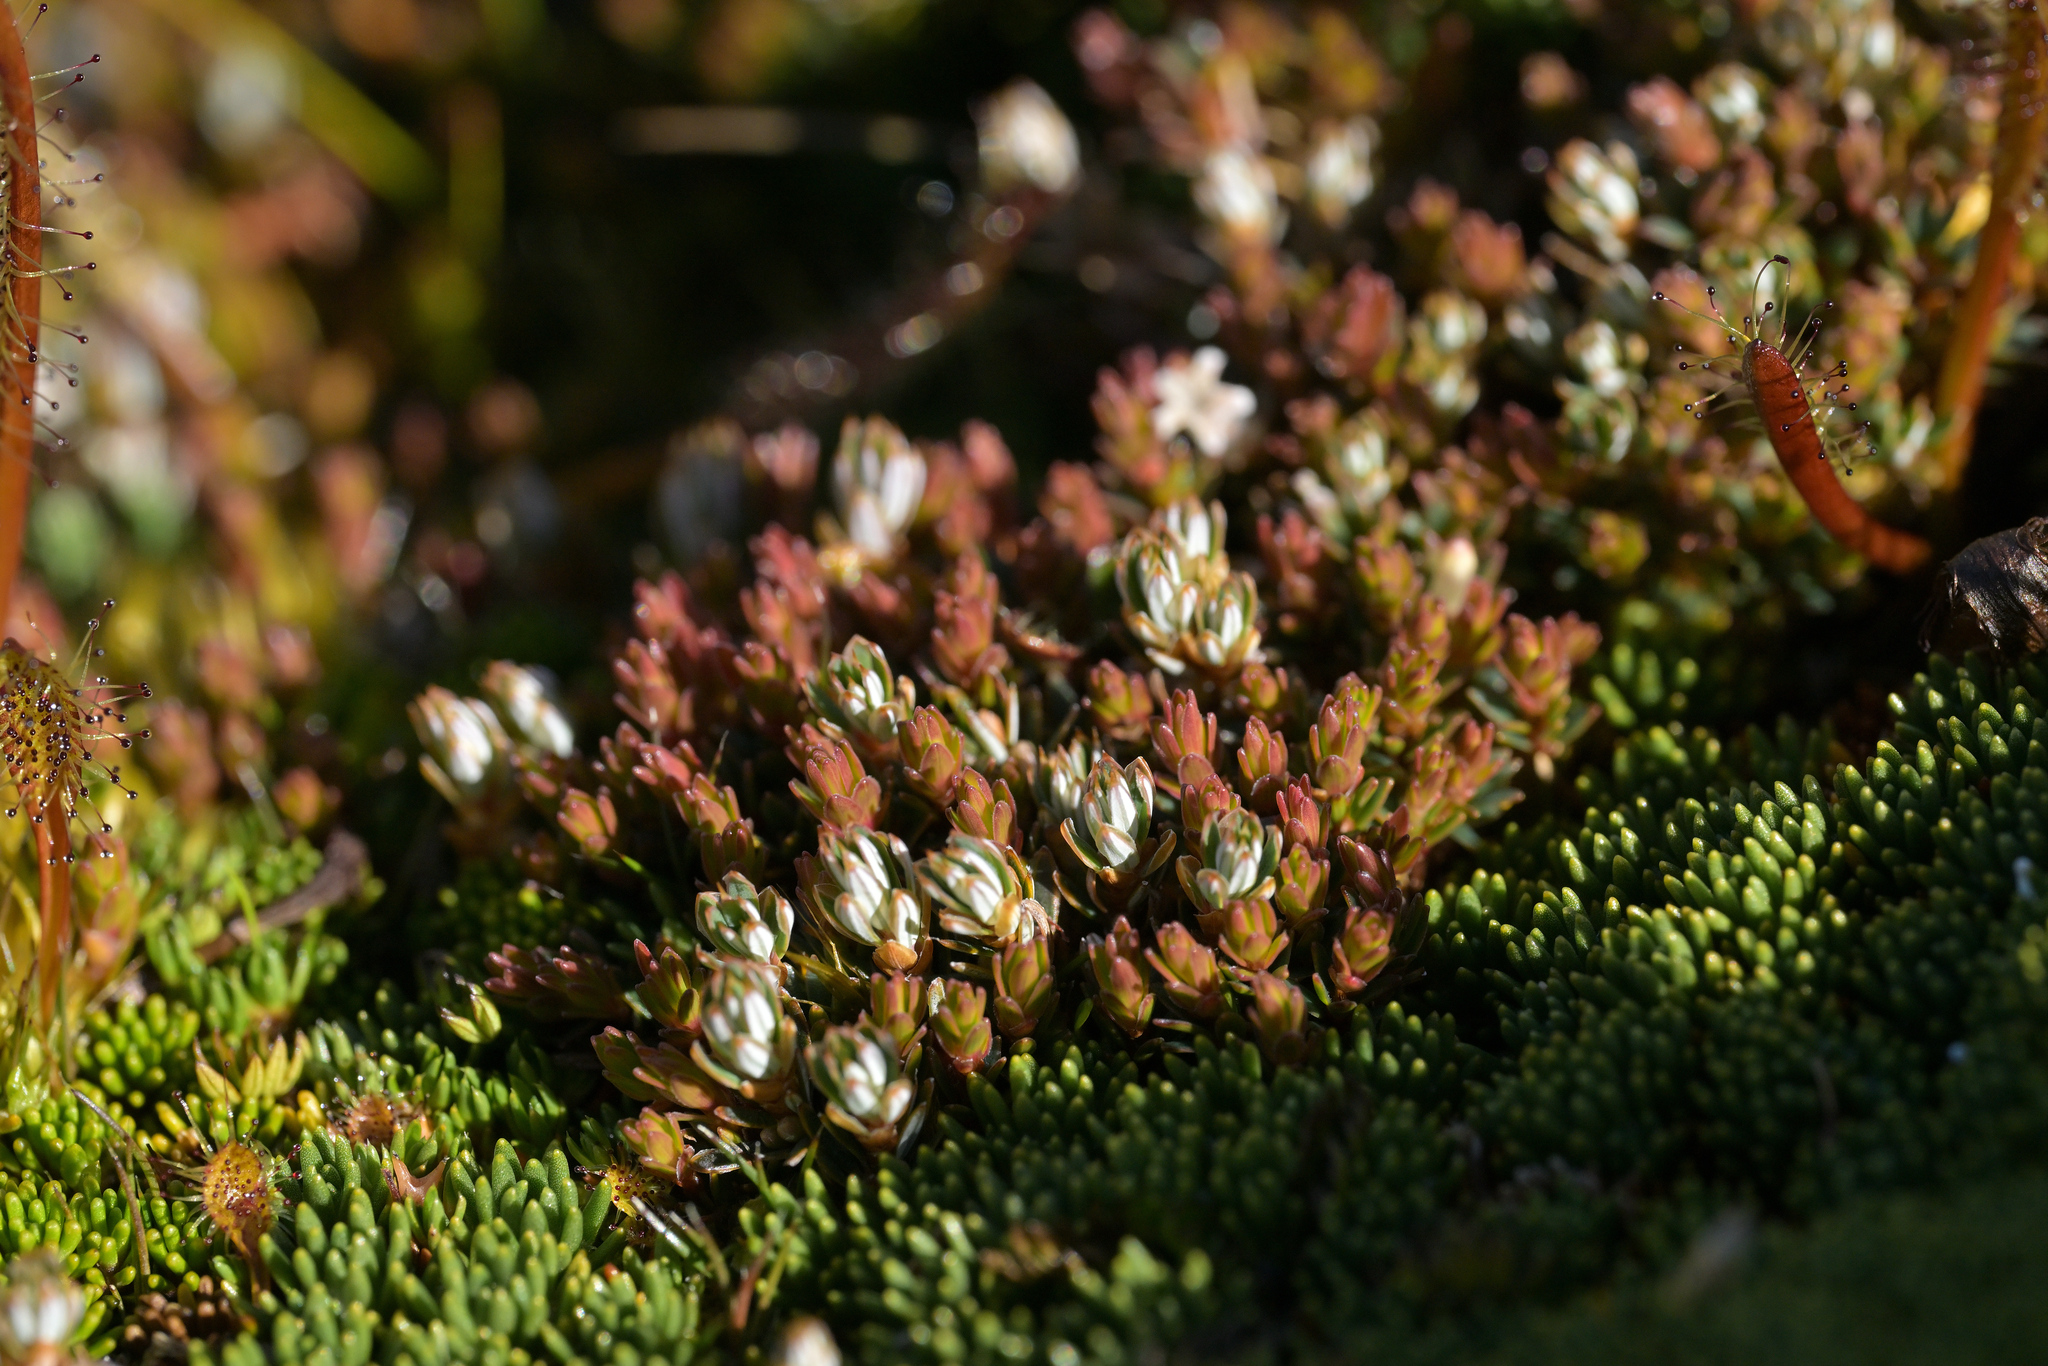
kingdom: Plantae
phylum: Tracheophyta
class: Magnoliopsida
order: Ericales
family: Ericaceae
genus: Montitega
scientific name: Montitega dealbata
